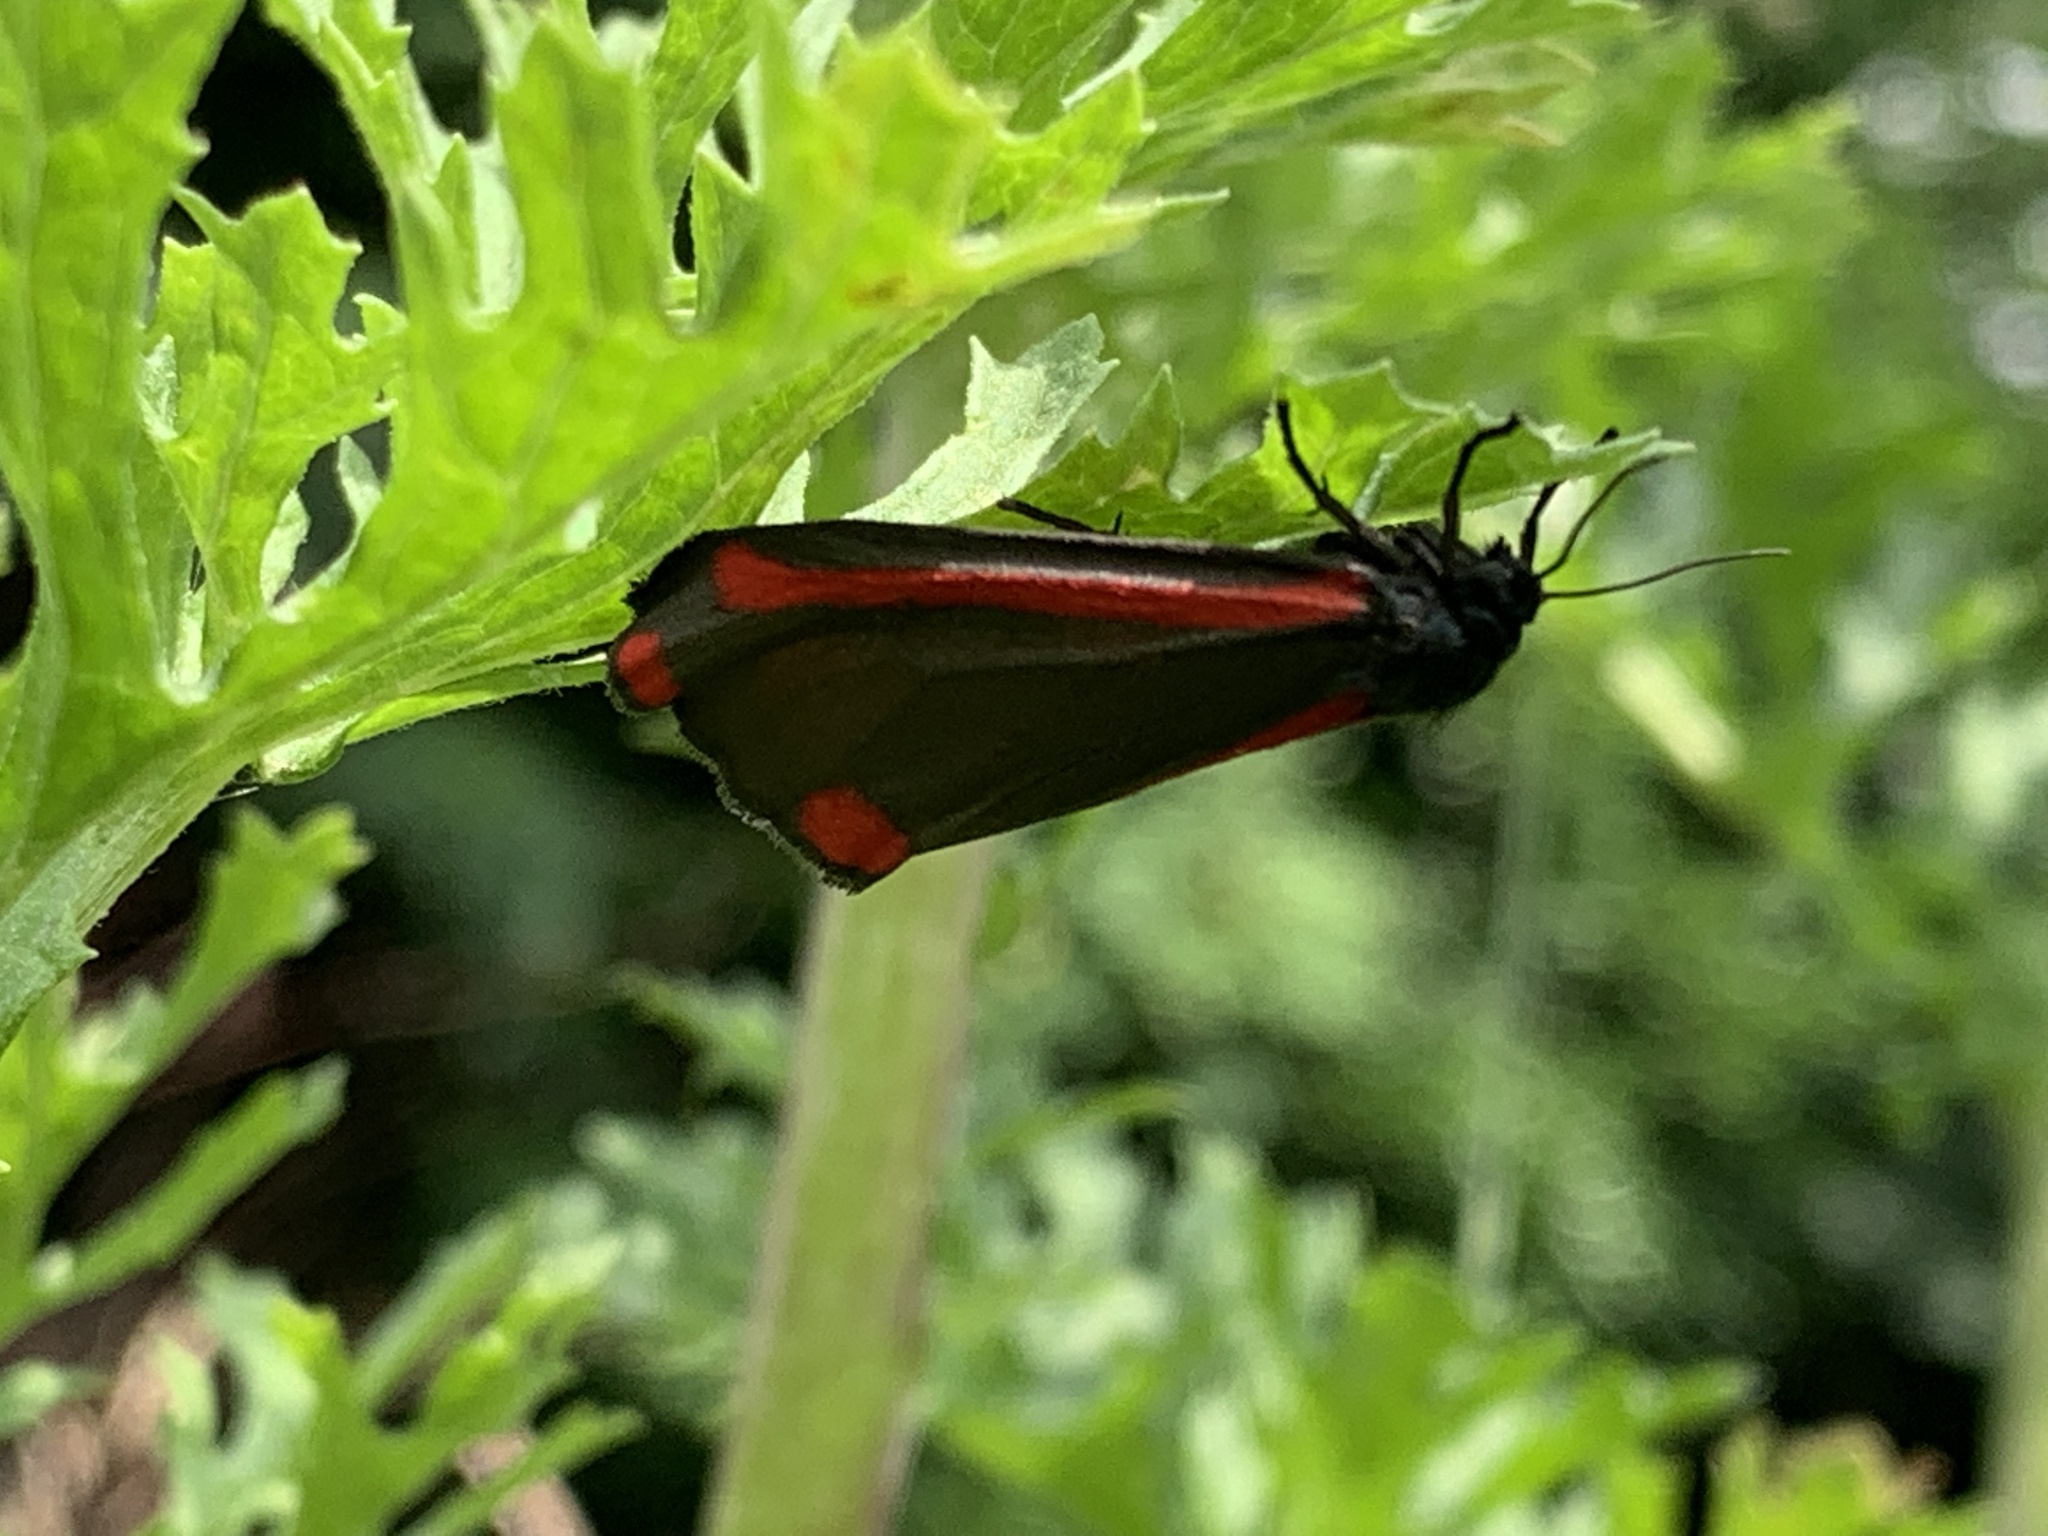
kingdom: Animalia
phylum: Arthropoda
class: Insecta
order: Lepidoptera
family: Erebidae
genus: Tyria
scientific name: Tyria jacobaeae
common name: Cinnabar
